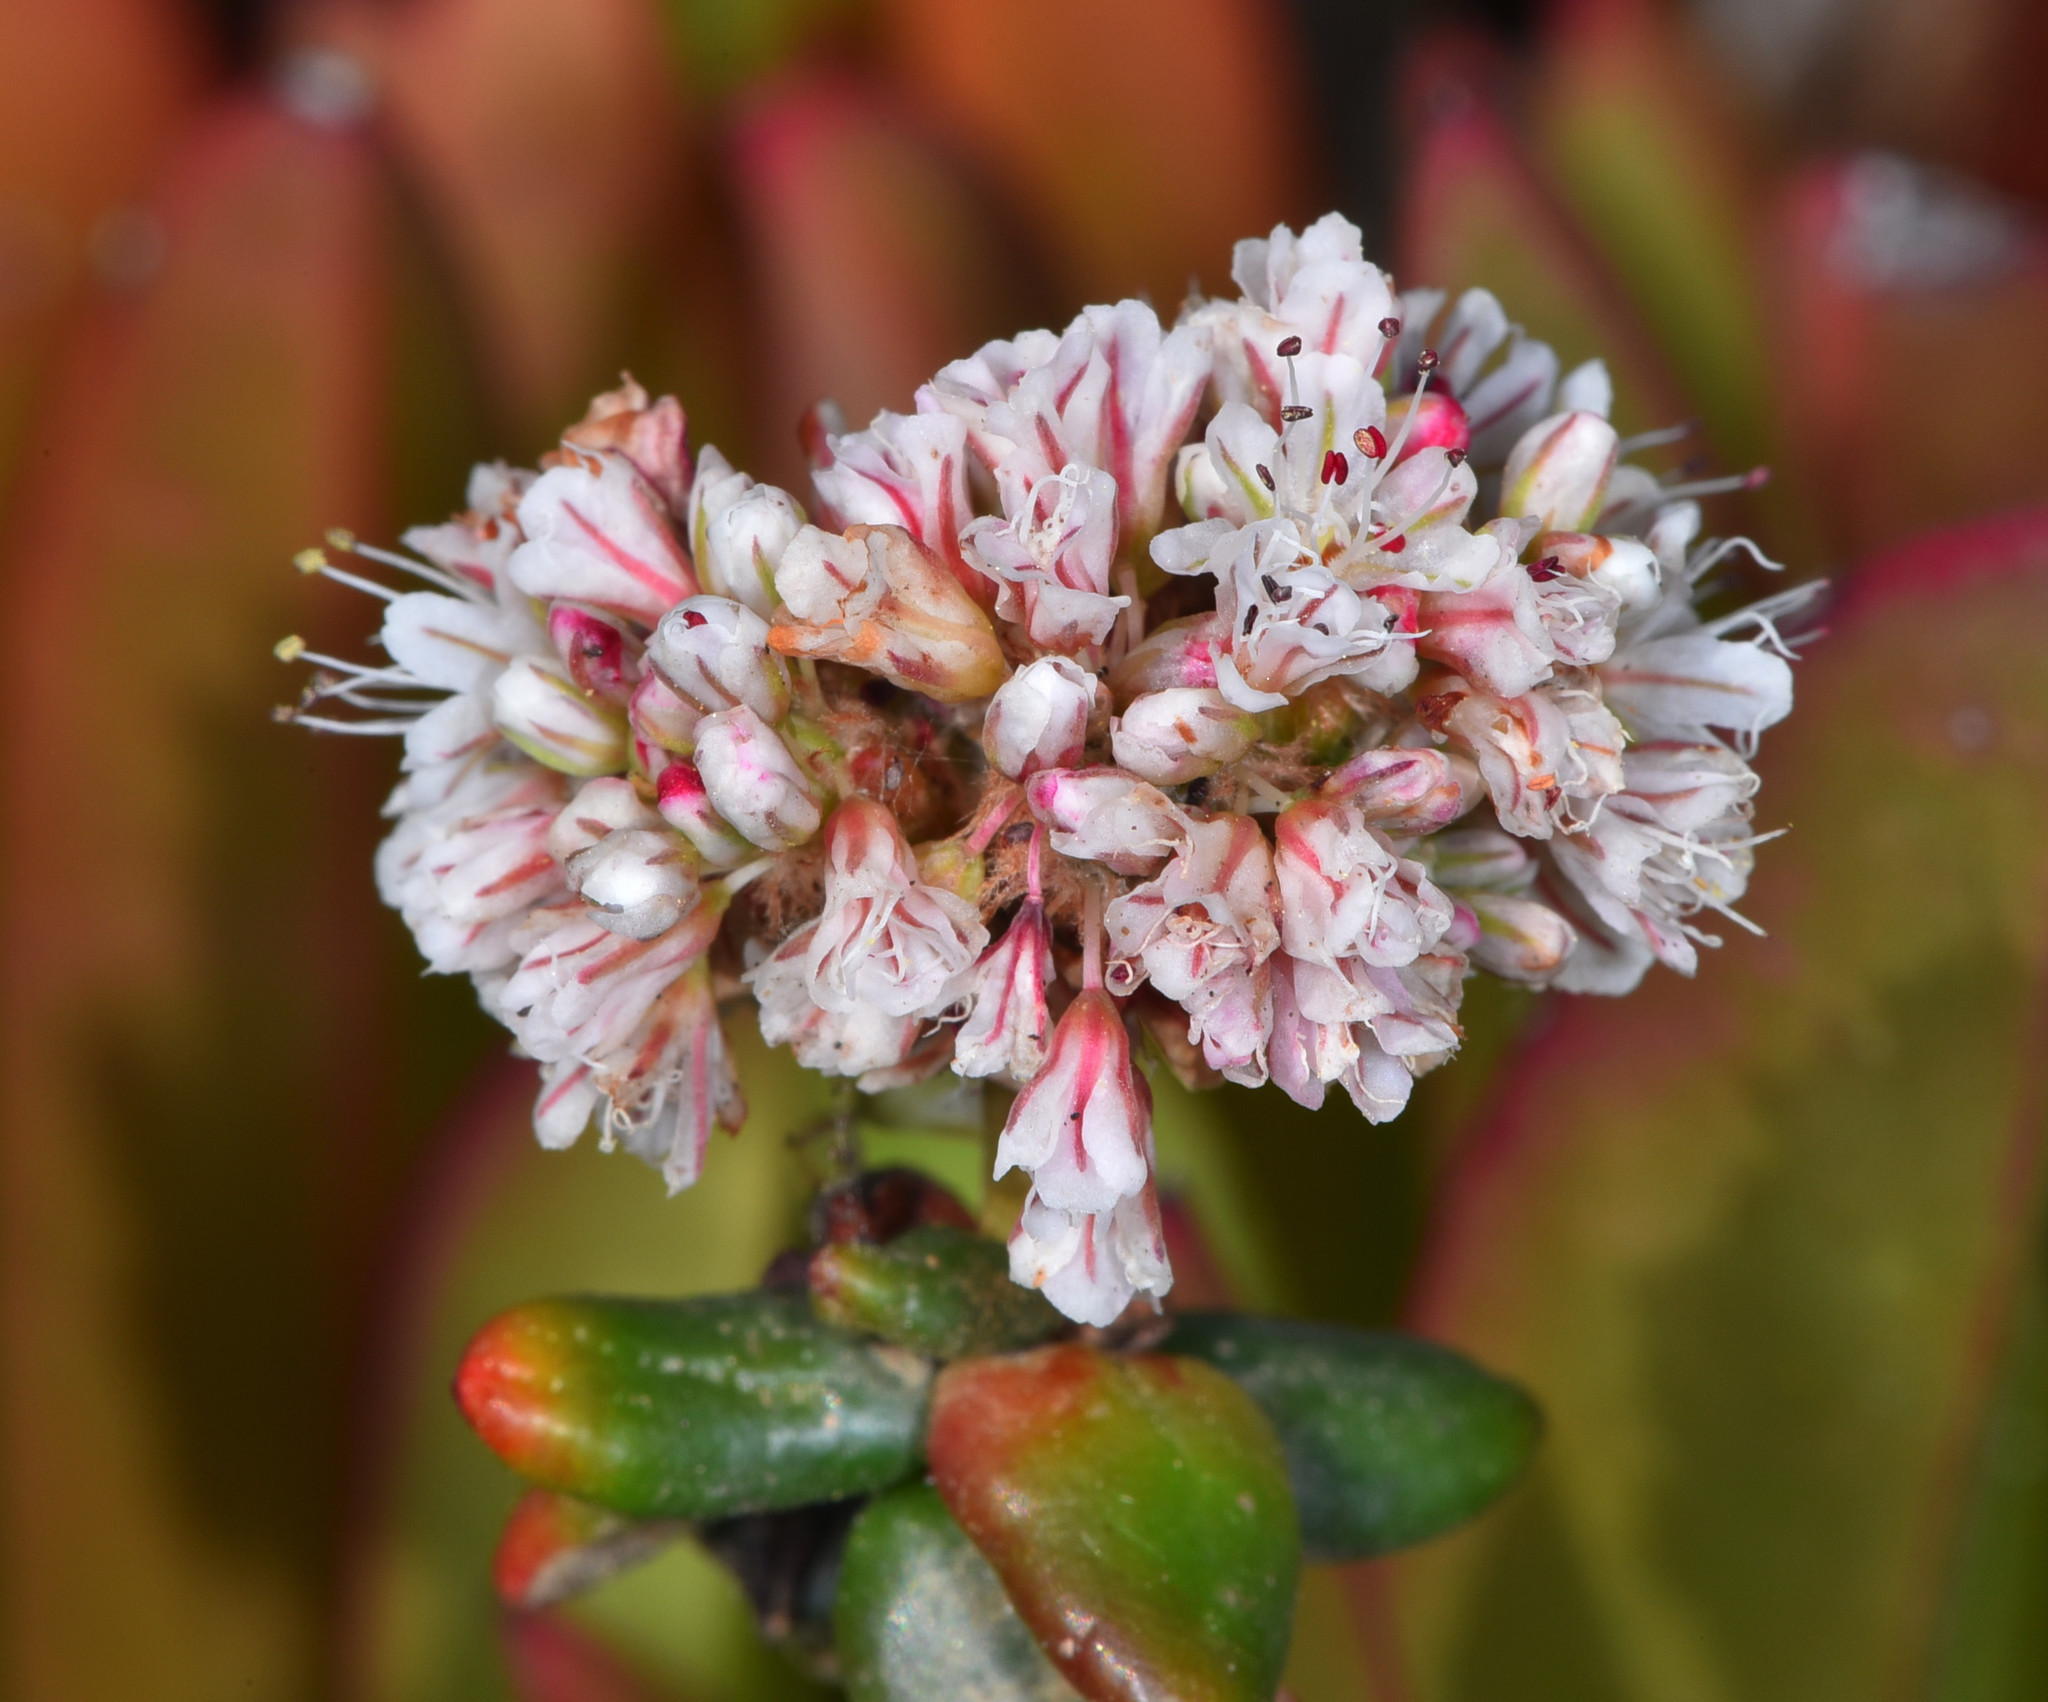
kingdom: Plantae
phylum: Tracheophyta
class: Magnoliopsida
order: Caryophyllales
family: Polygonaceae
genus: Eriogonum
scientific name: Eriogonum parvifolium
